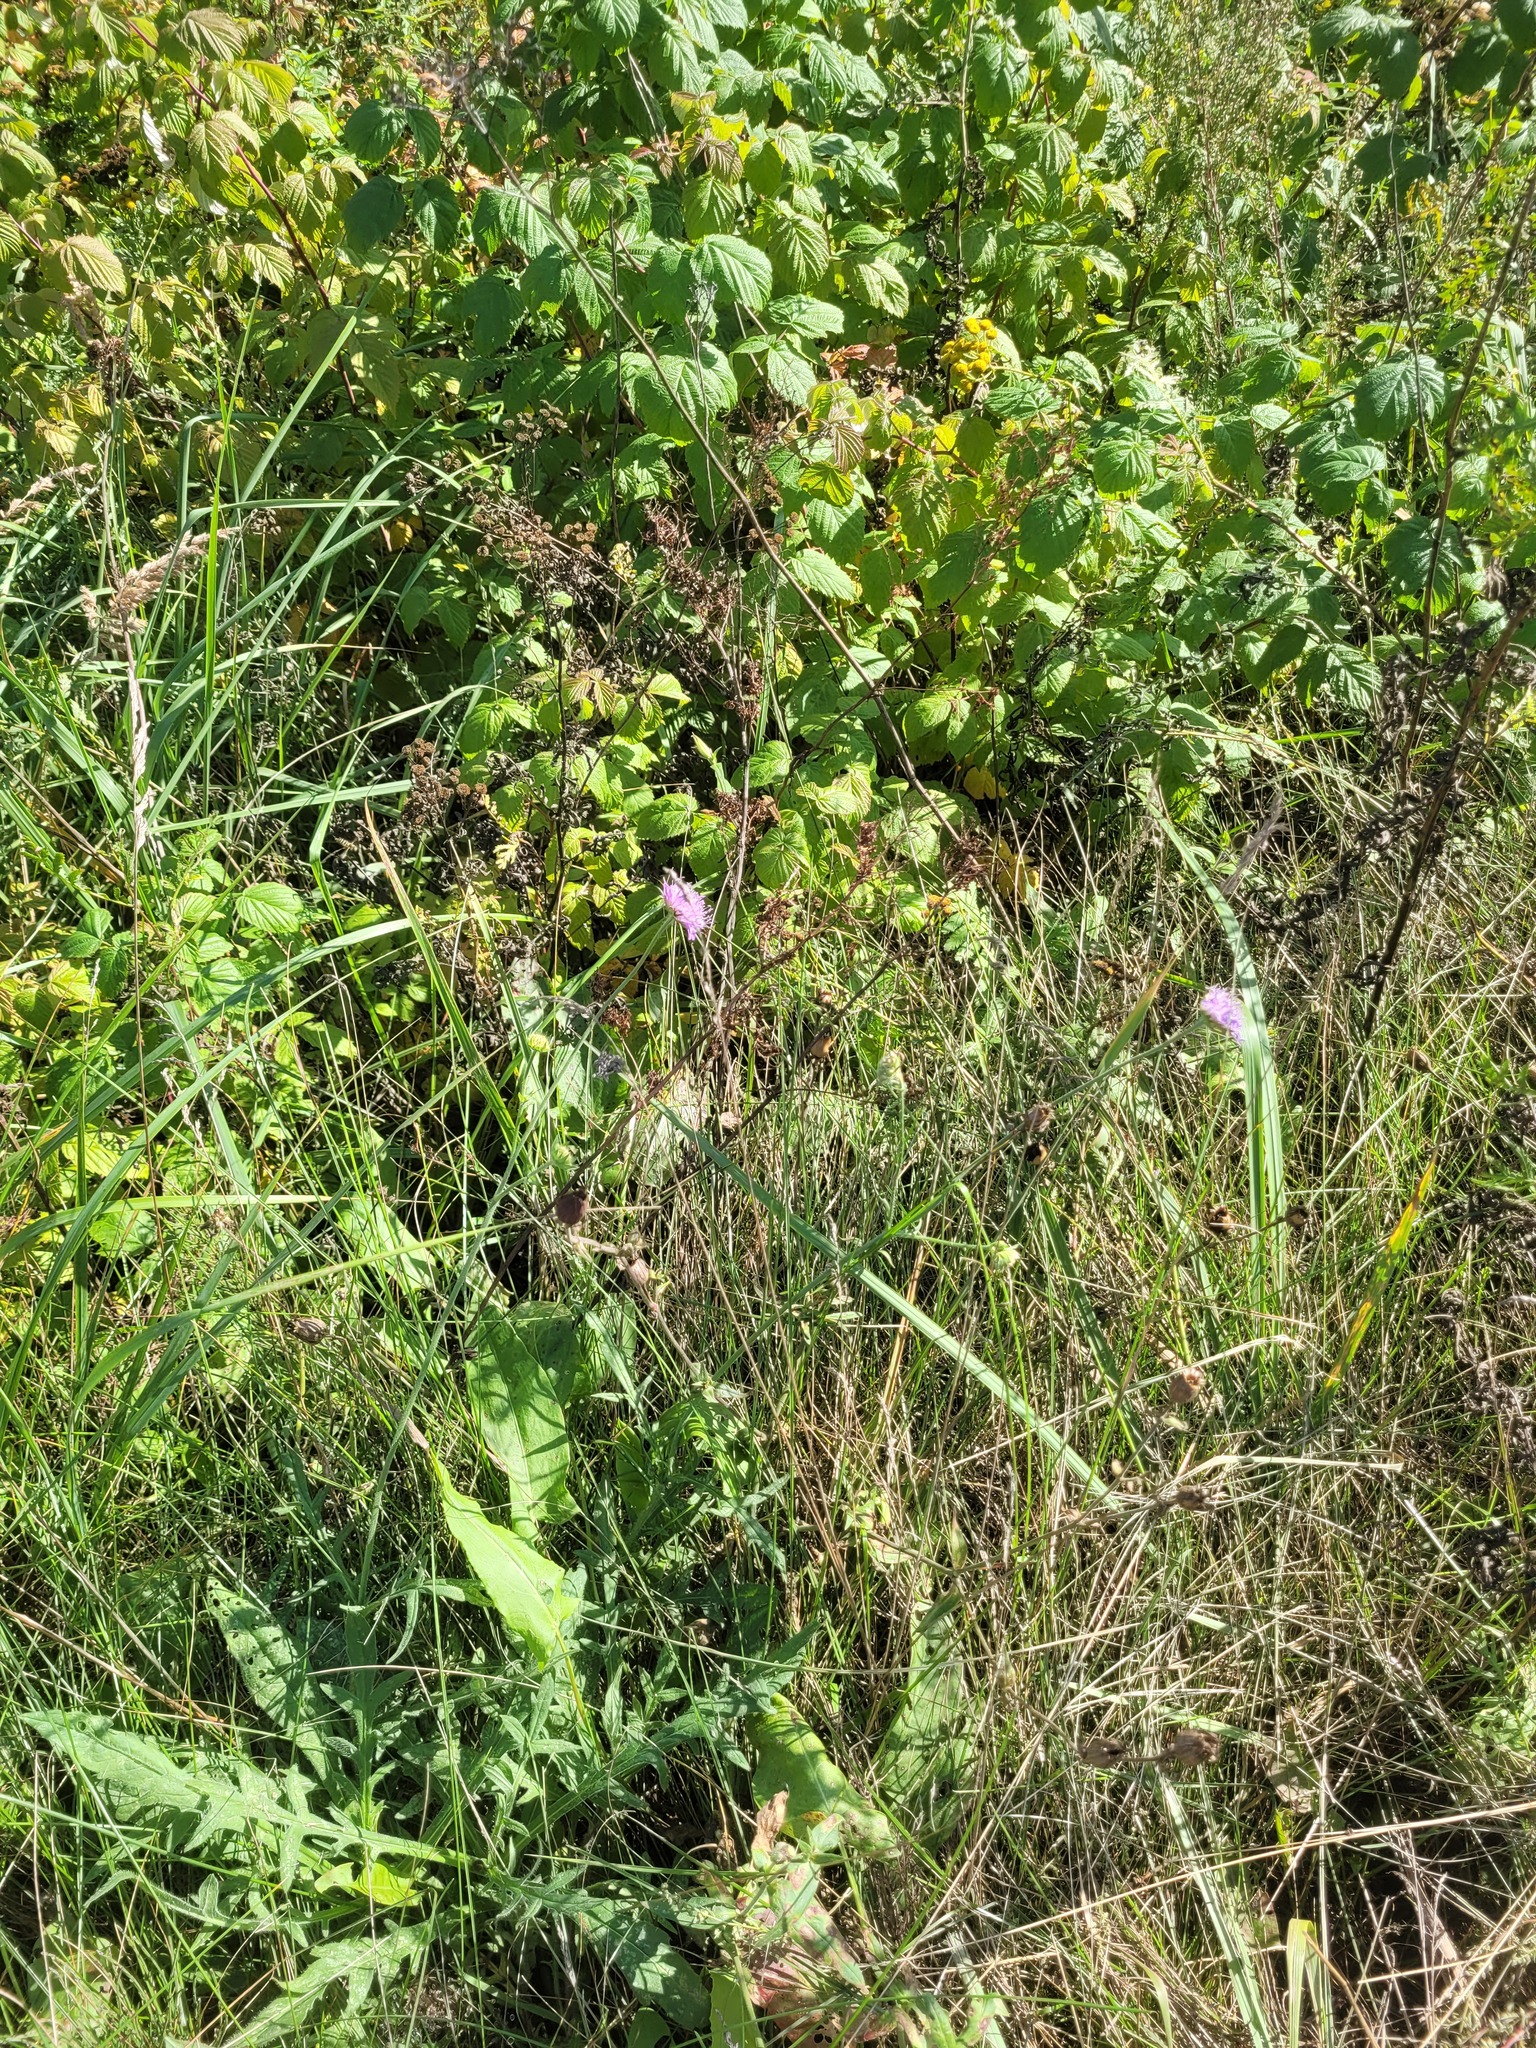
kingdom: Plantae
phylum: Tracheophyta
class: Magnoliopsida
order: Dipsacales
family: Caprifoliaceae
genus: Knautia
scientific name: Knautia arvensis
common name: Field scabiosa
